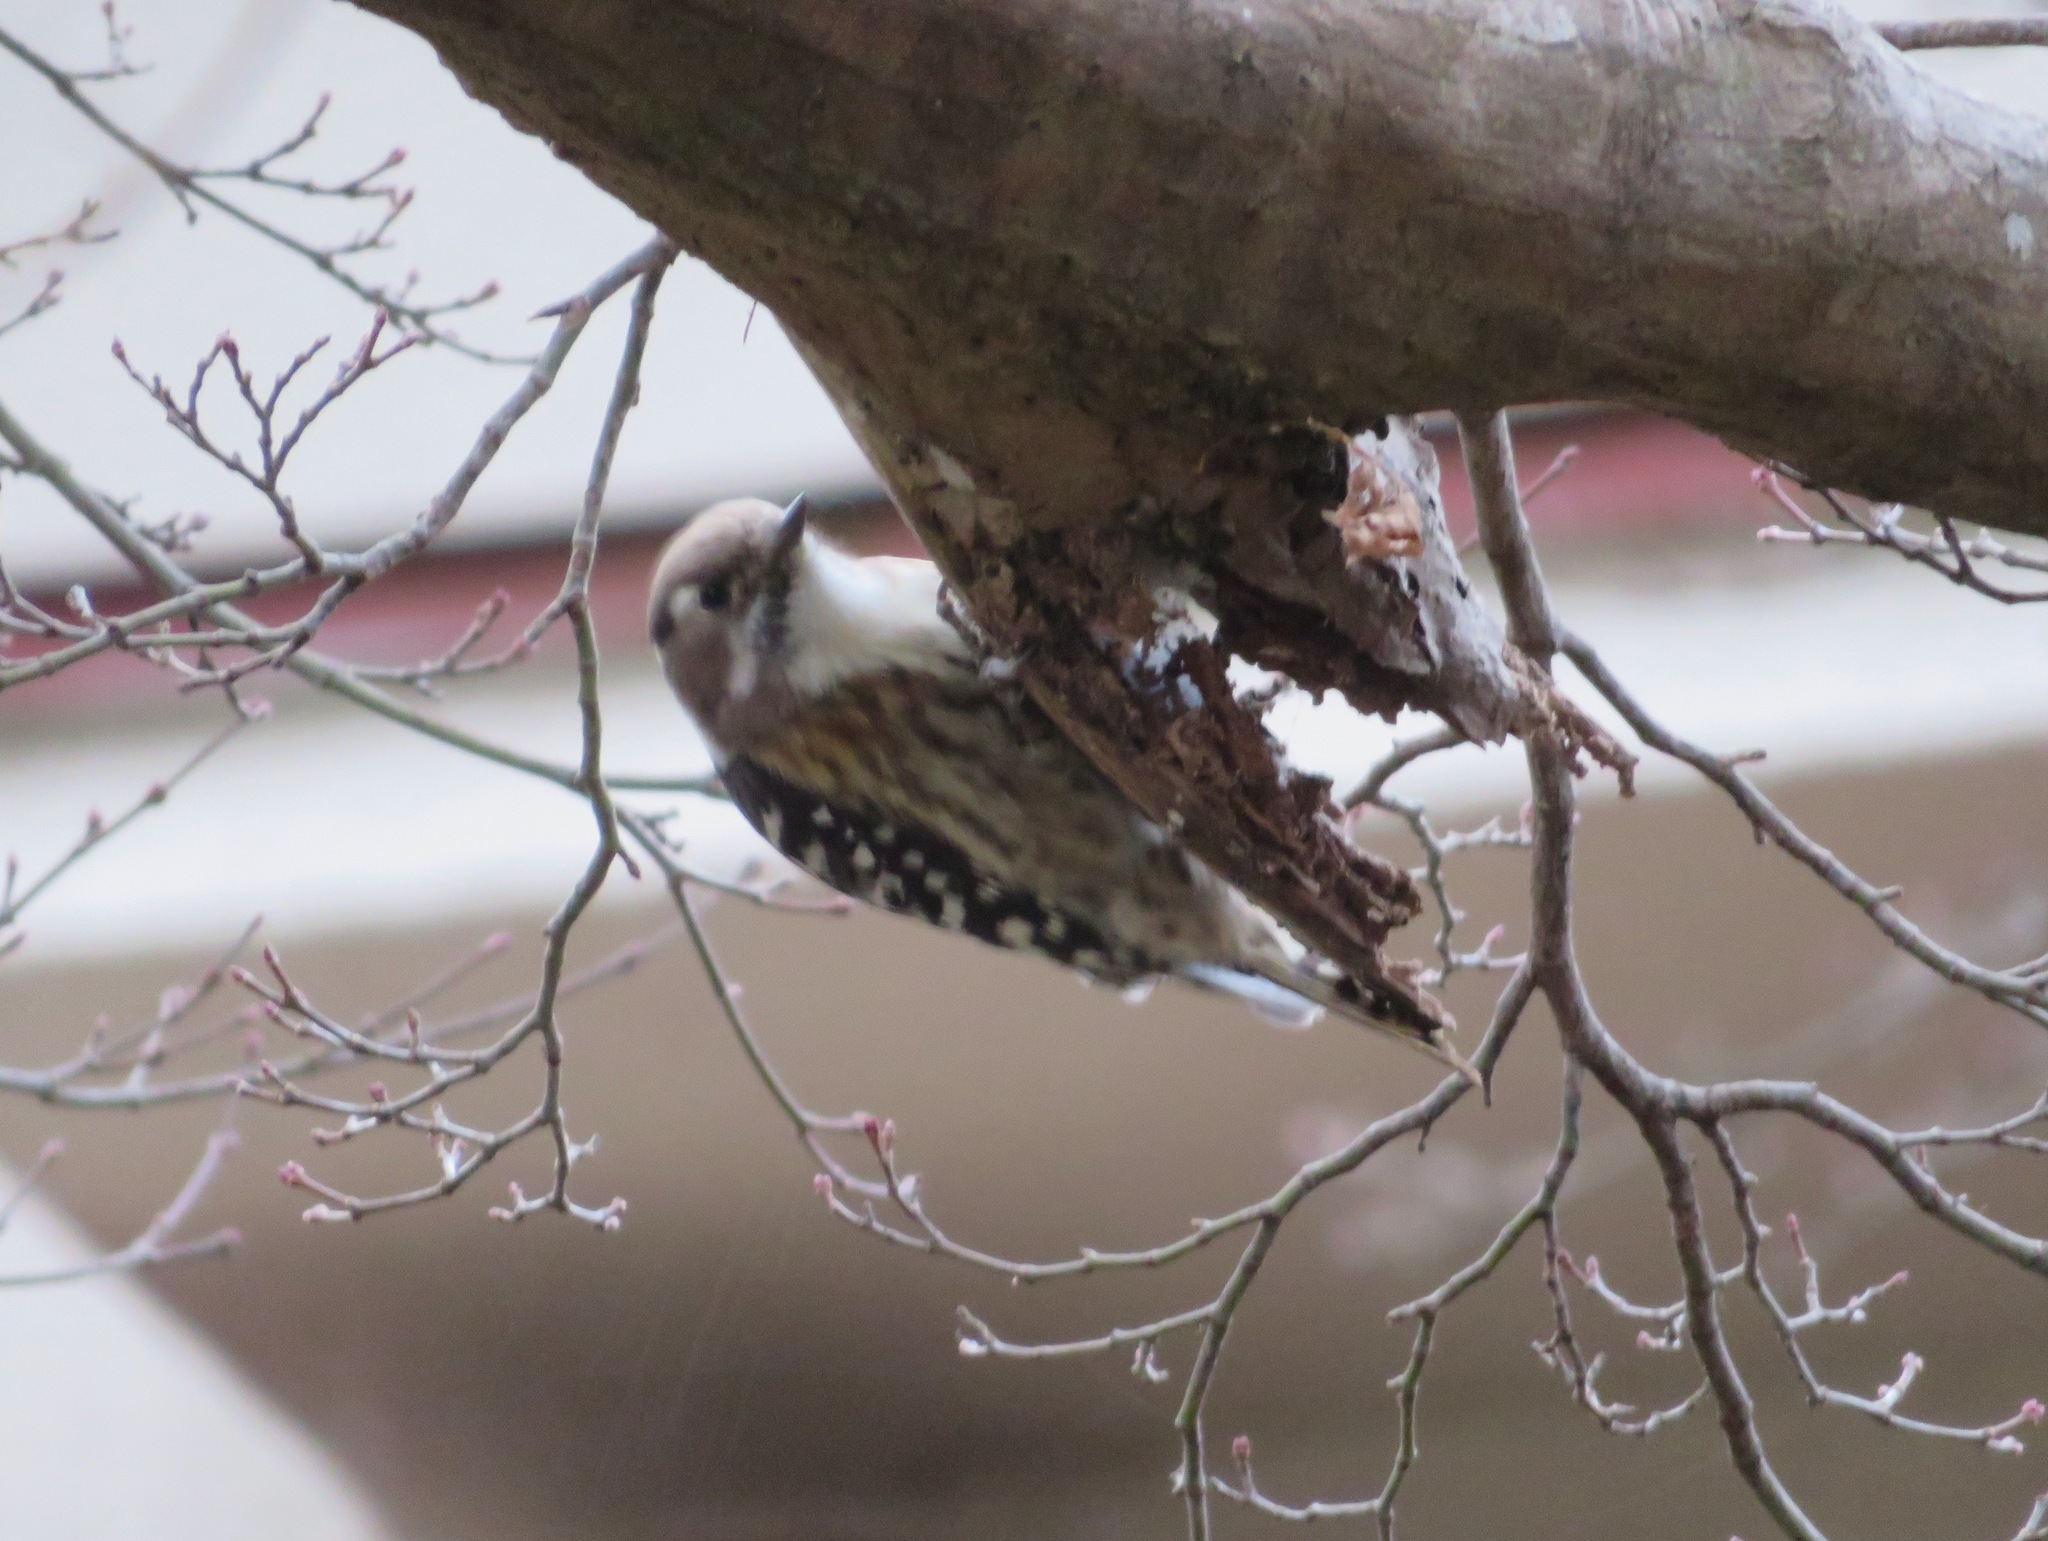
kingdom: Animalia
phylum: Chordata
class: Aves
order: Piciformes
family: Picidae
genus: Yungipicus
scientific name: Yungipicus kizuki
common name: Japanese pygmy woodpecker
